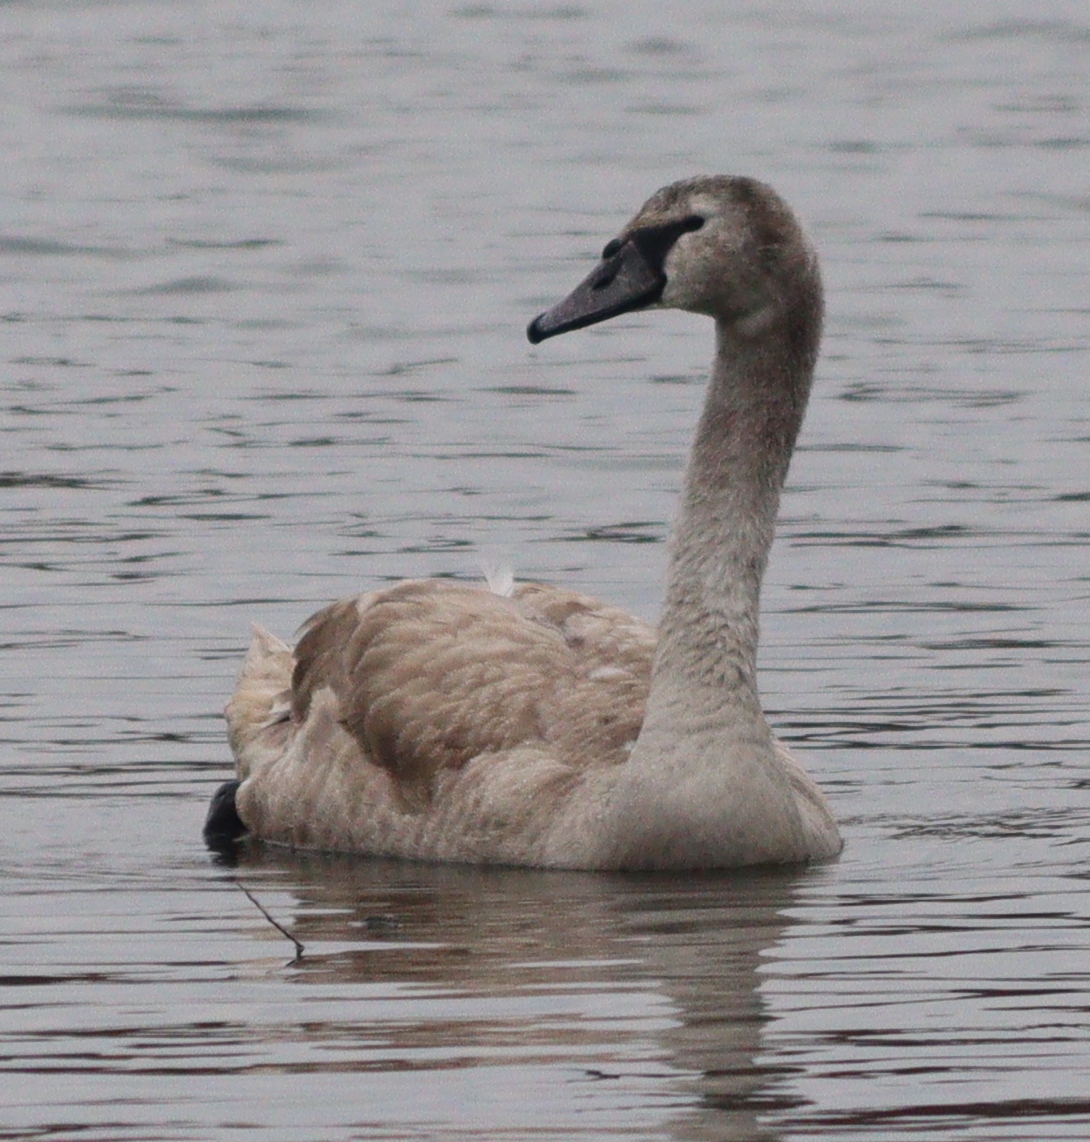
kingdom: Animalia
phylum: Chordata
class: Aves
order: Anseriformes
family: Anatidae
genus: Cygnus
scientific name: Cygnus olor
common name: Mute swan
